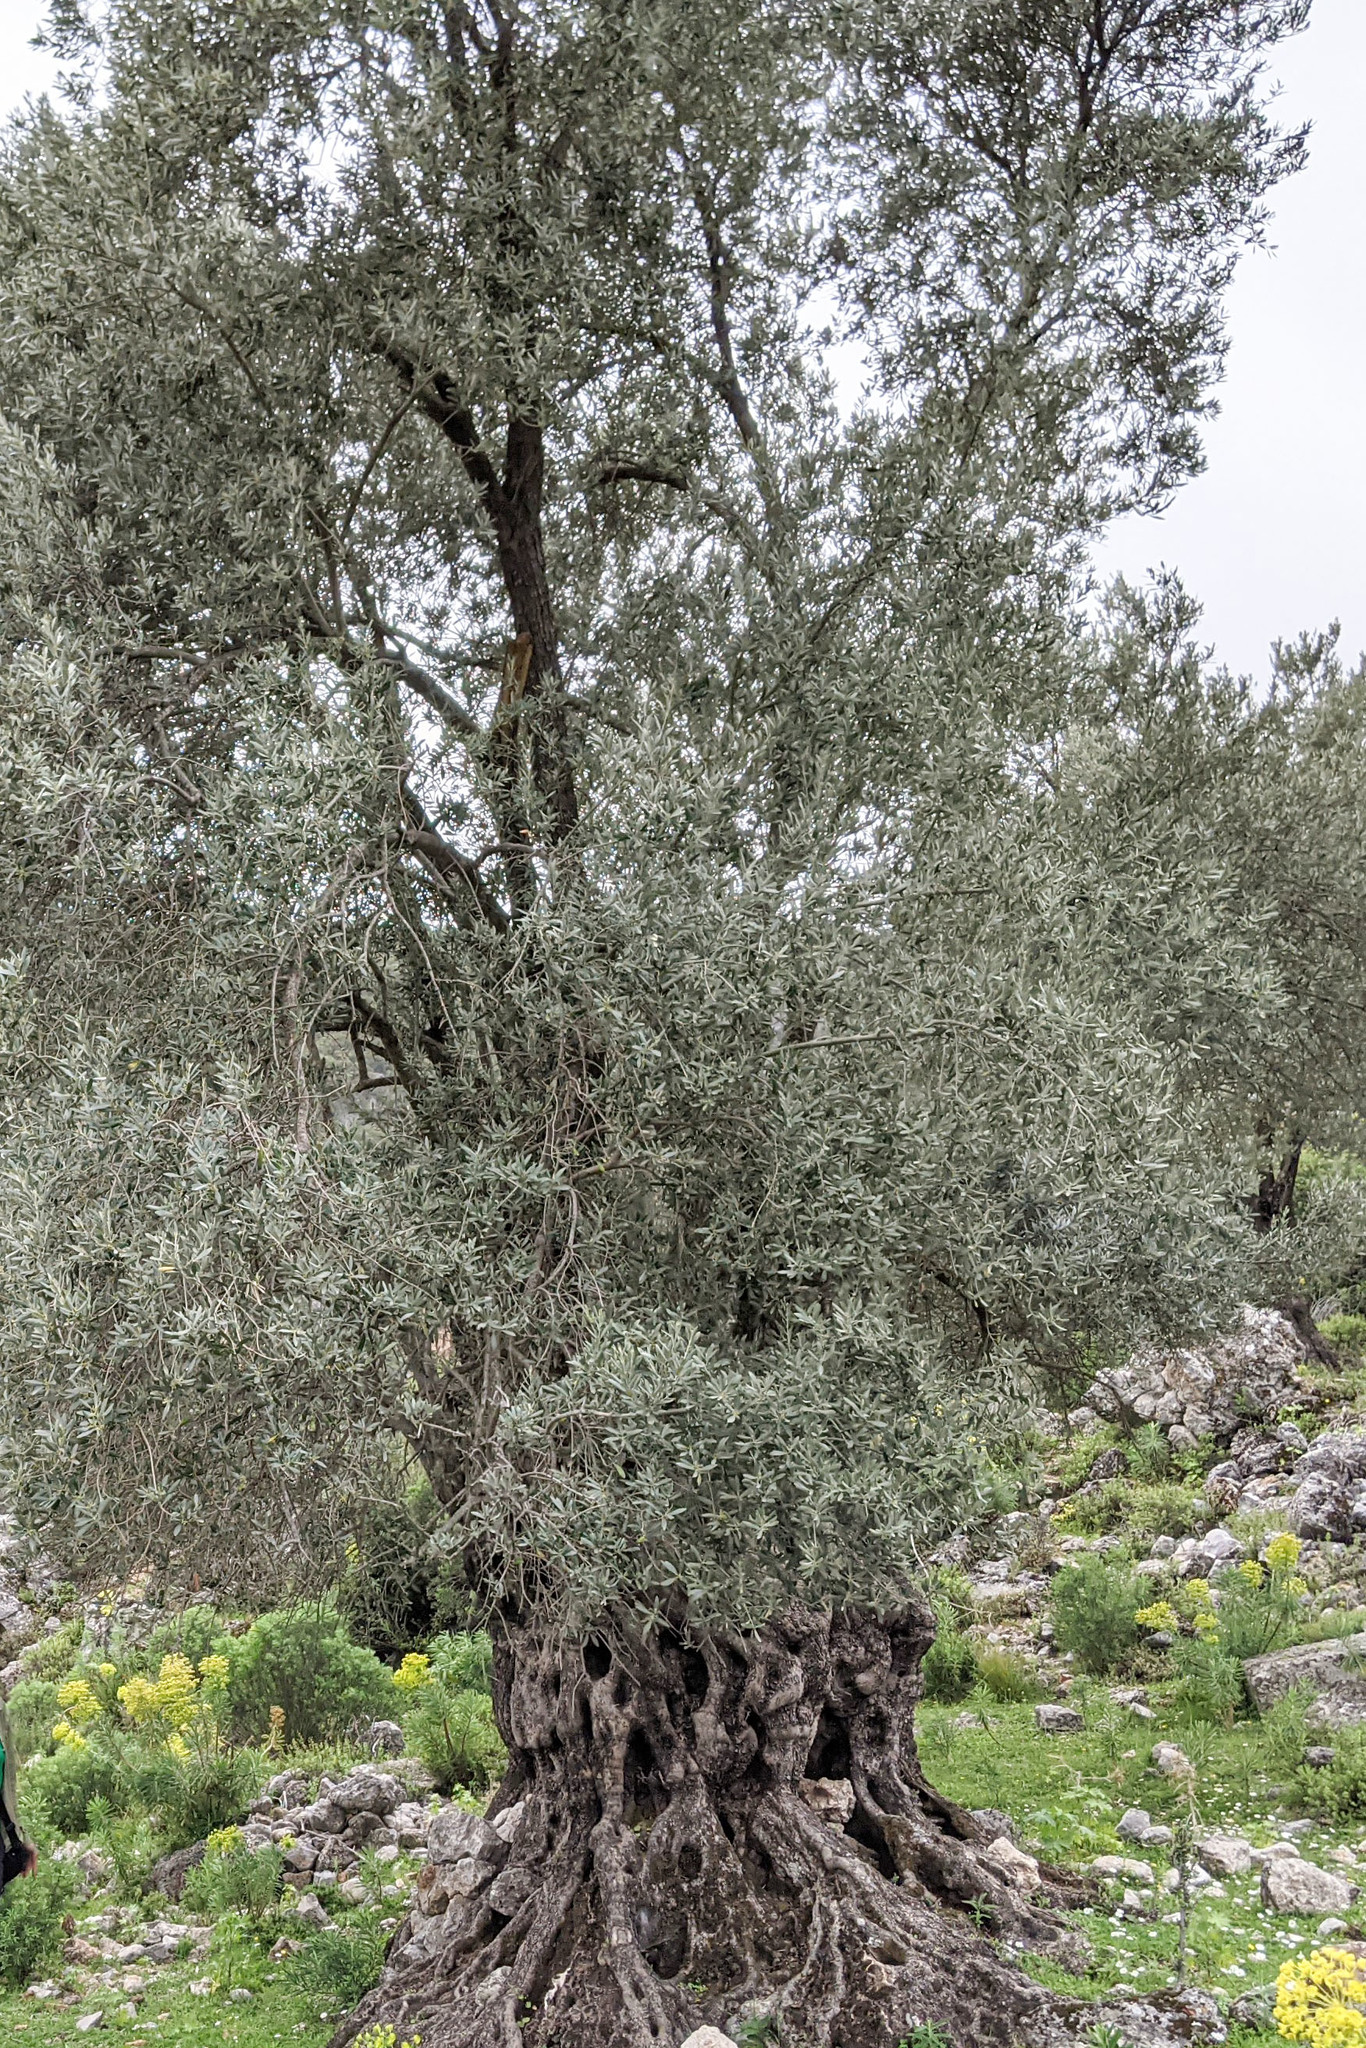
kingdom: Plantae
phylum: Tracheophyta
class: Magnoliopsida
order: Lamiales
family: Oleaceae
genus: Olea
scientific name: Olea europaea
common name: Olive
